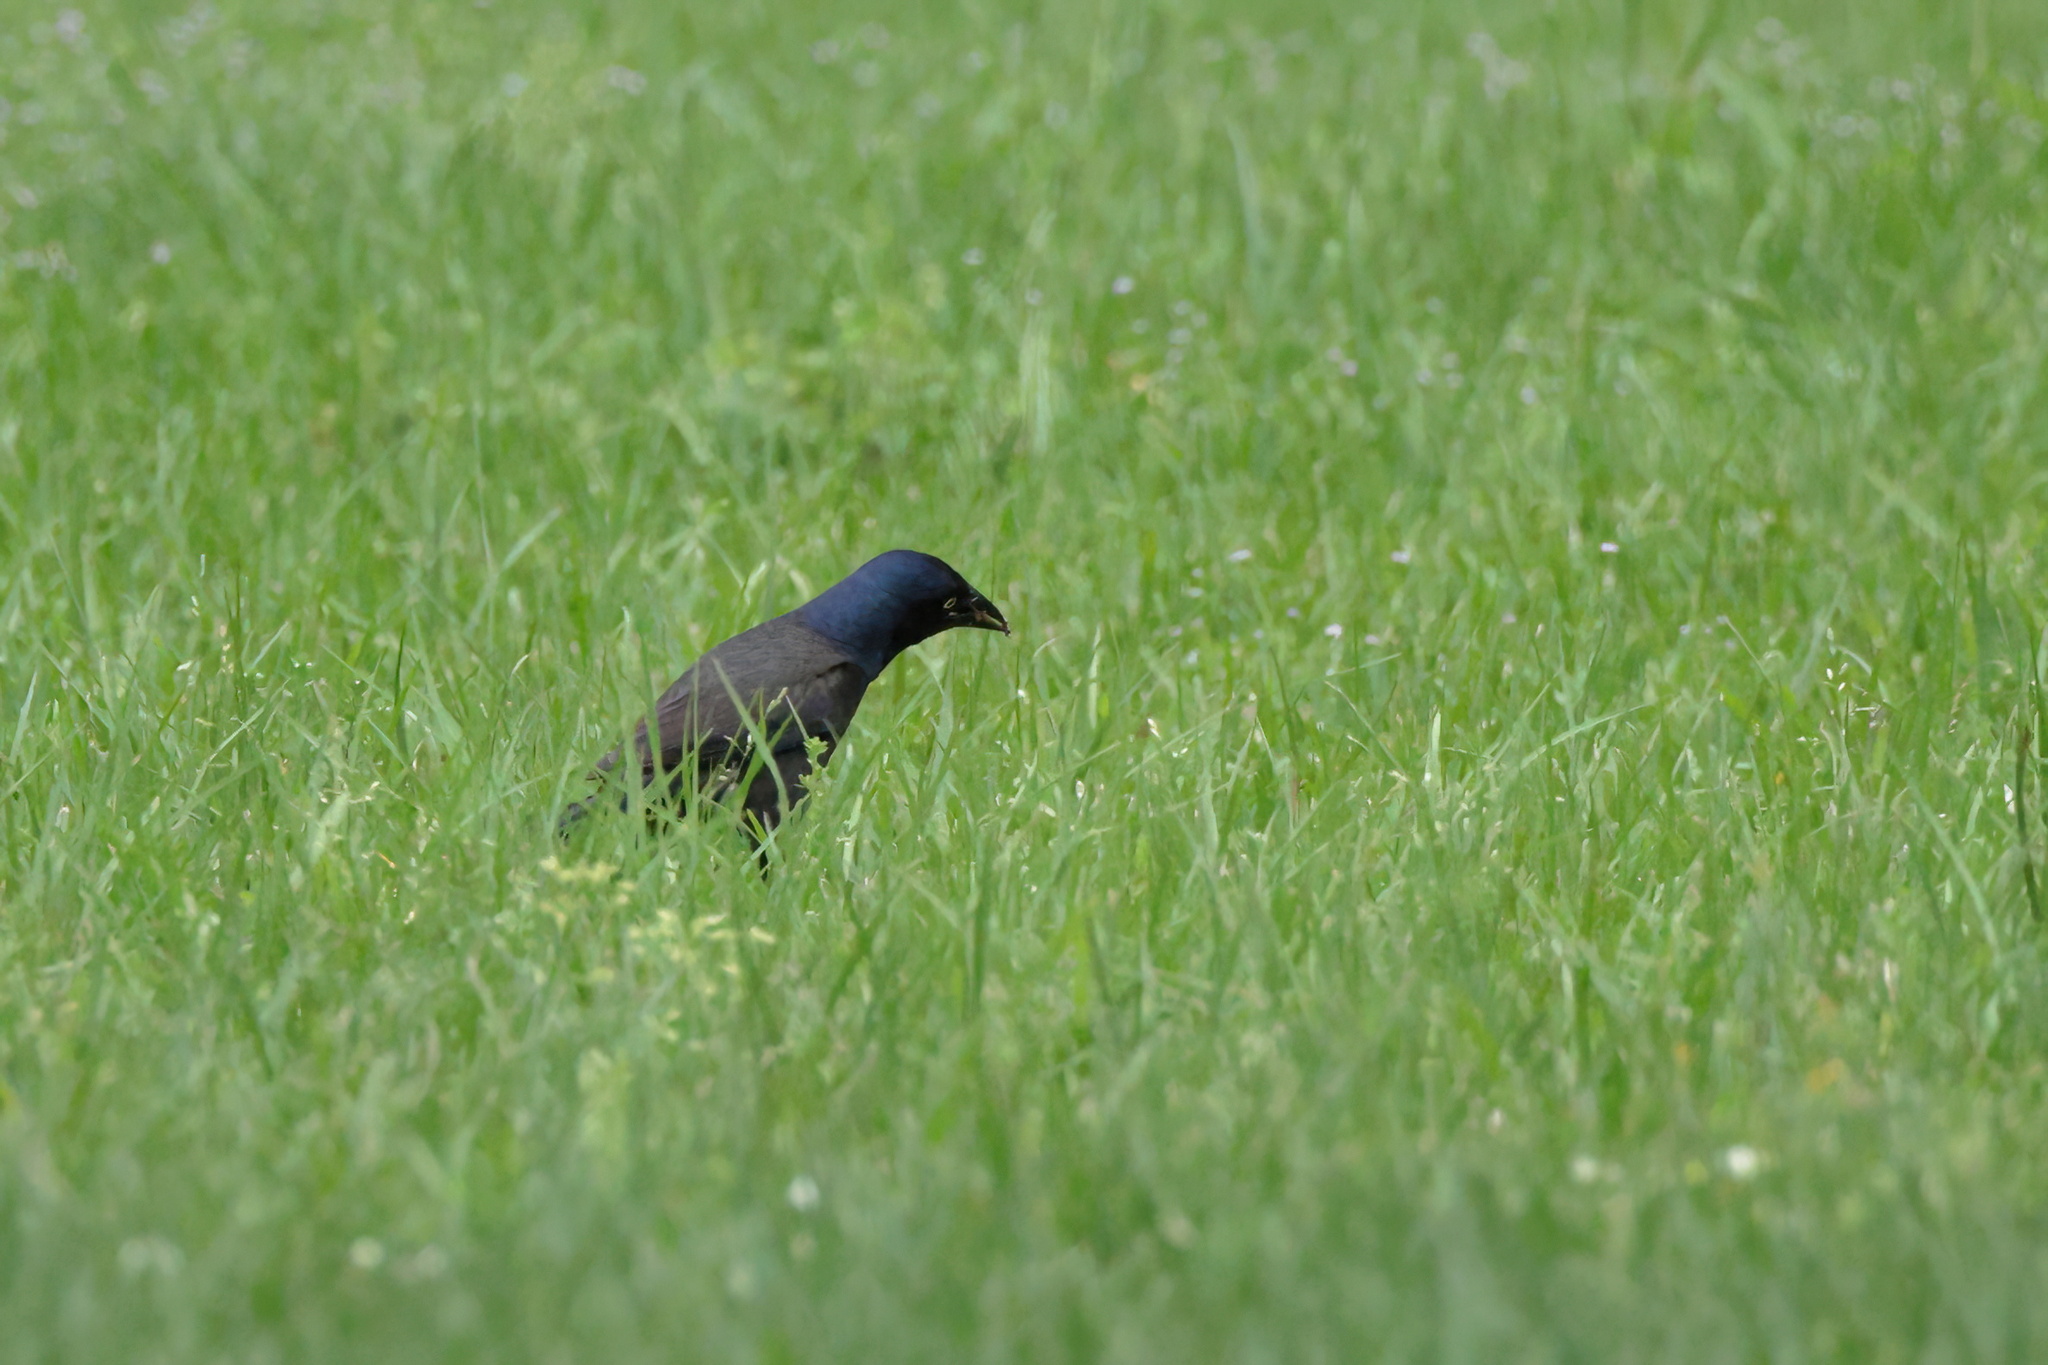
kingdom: Animalia
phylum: Chordata
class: Aves
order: Passeriformes
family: Icteridae
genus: Quiscalus
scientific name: Quiscalus quiscula
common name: Common grackle
